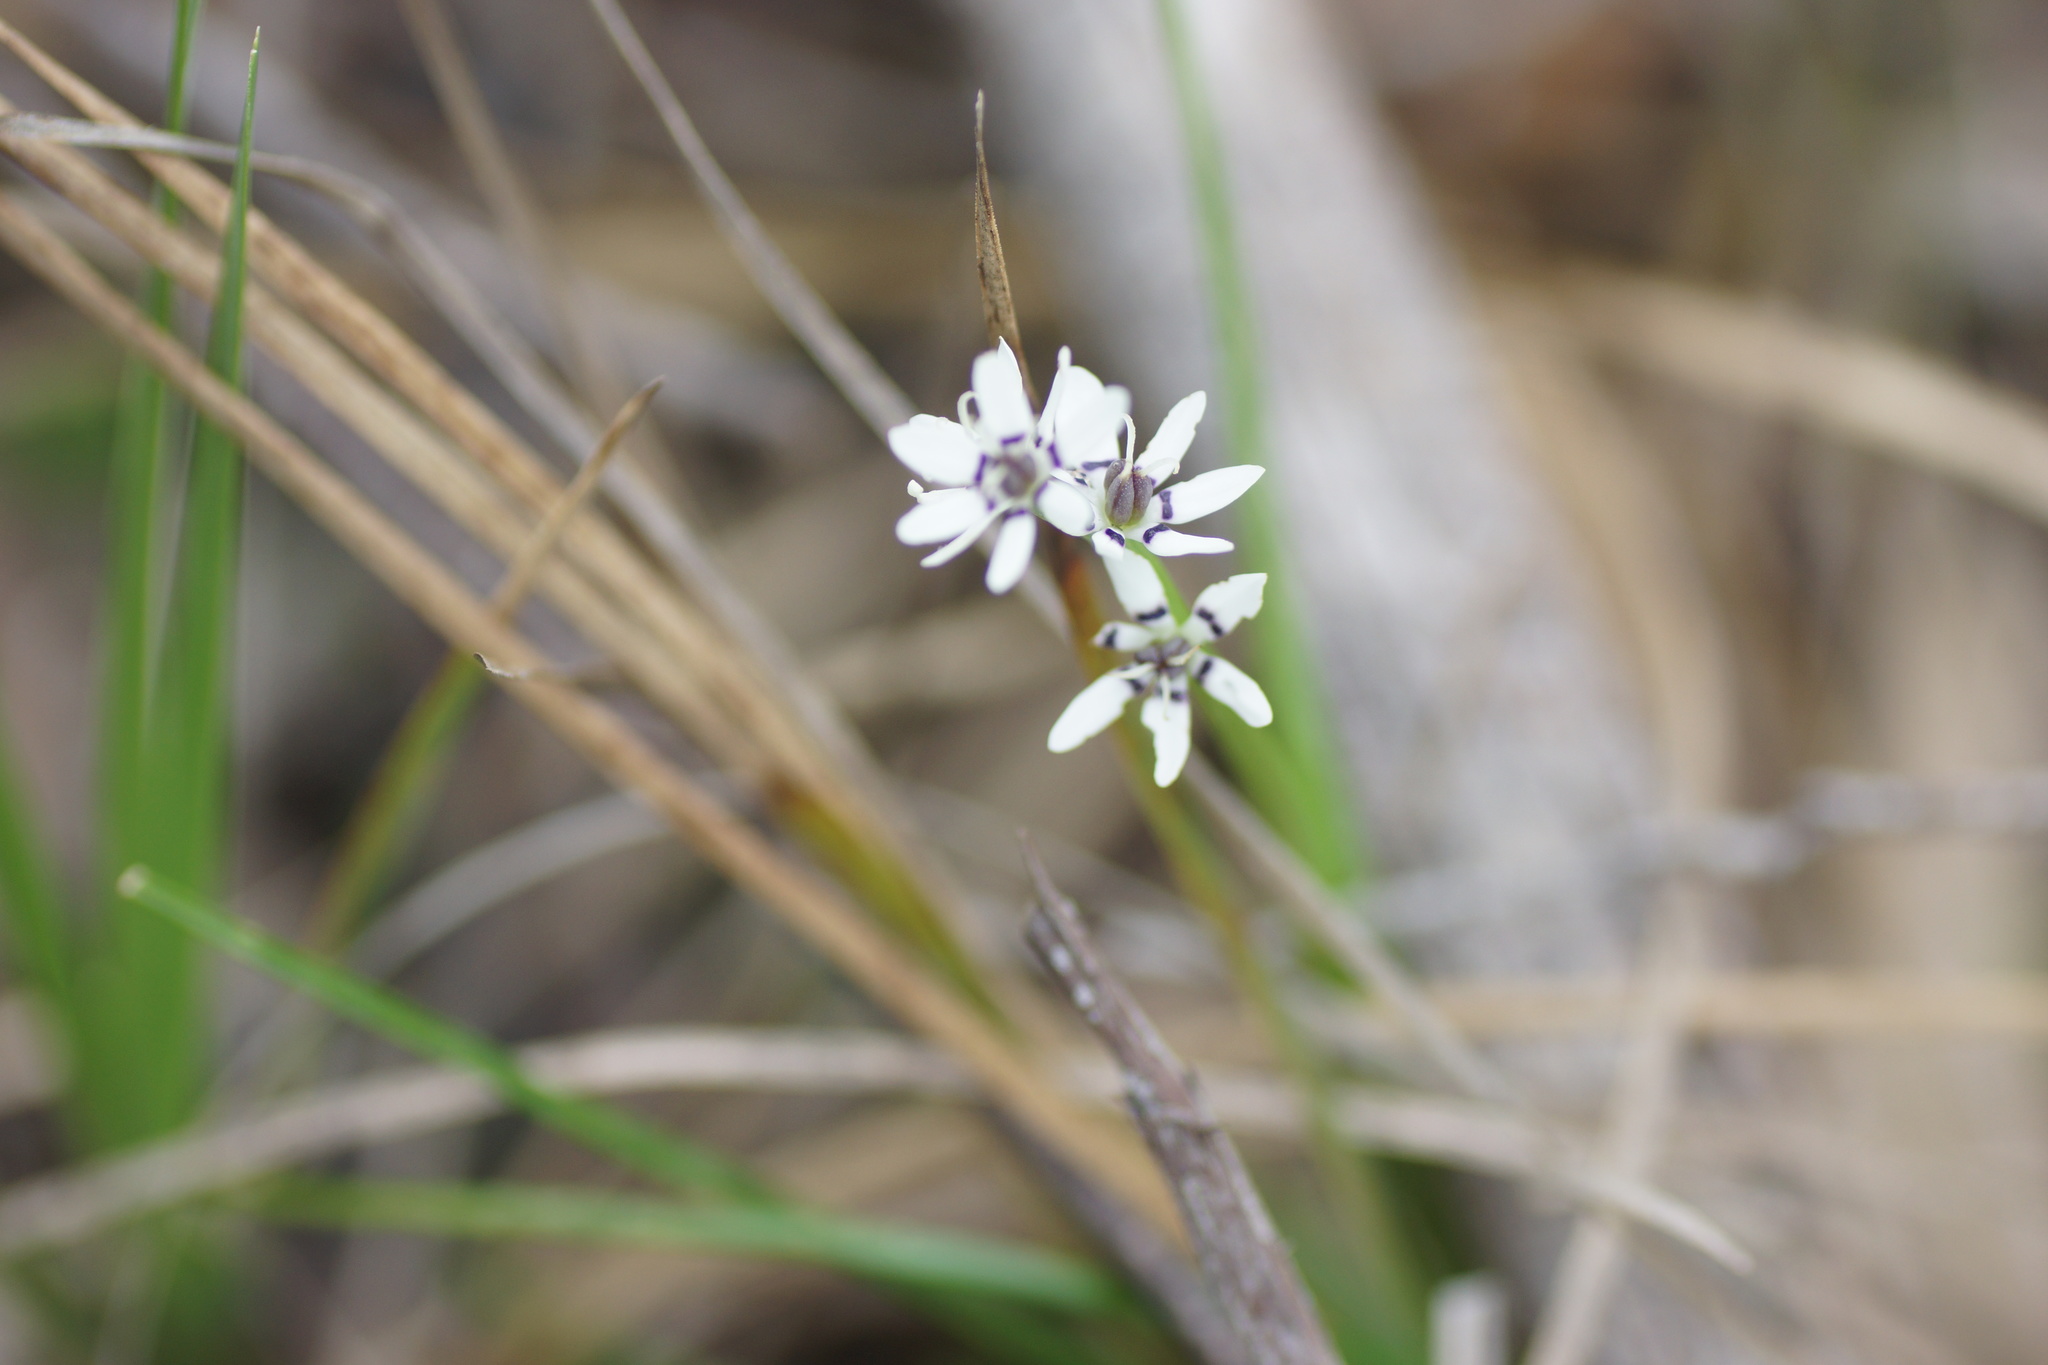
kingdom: Plantae
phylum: Tracheophyta
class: Liliopsida
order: Liliales
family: Colchicaceae
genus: Wurmbea
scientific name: Wurmbea dioica
